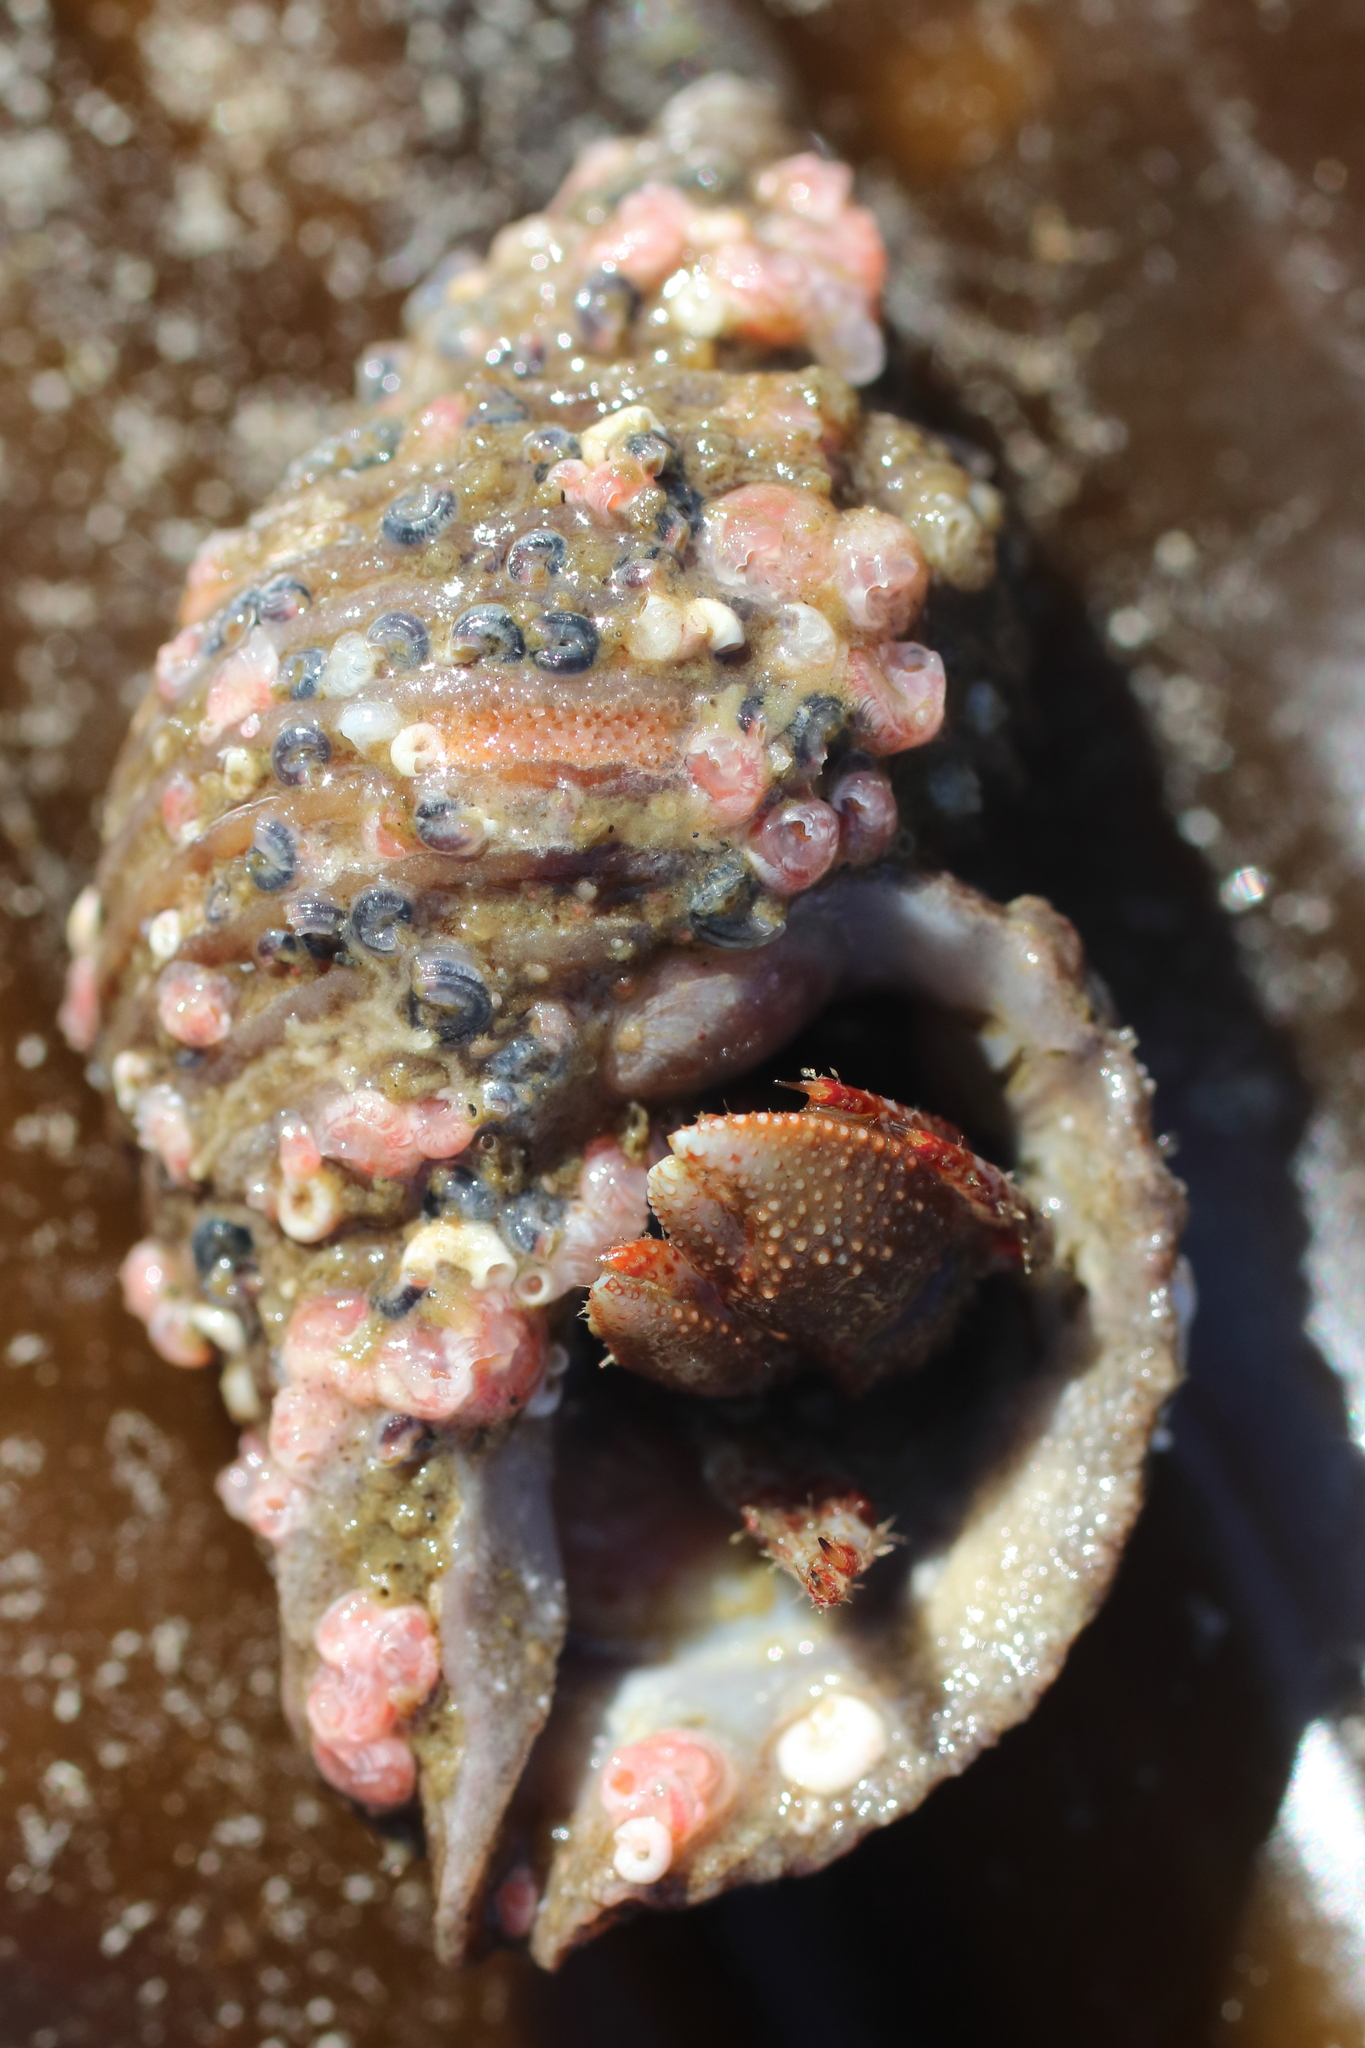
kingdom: Animalia
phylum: Arthropoda
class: Malacostraca
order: Decapoda
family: Paguridae
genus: Pagurus
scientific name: Pagurus beringanus
